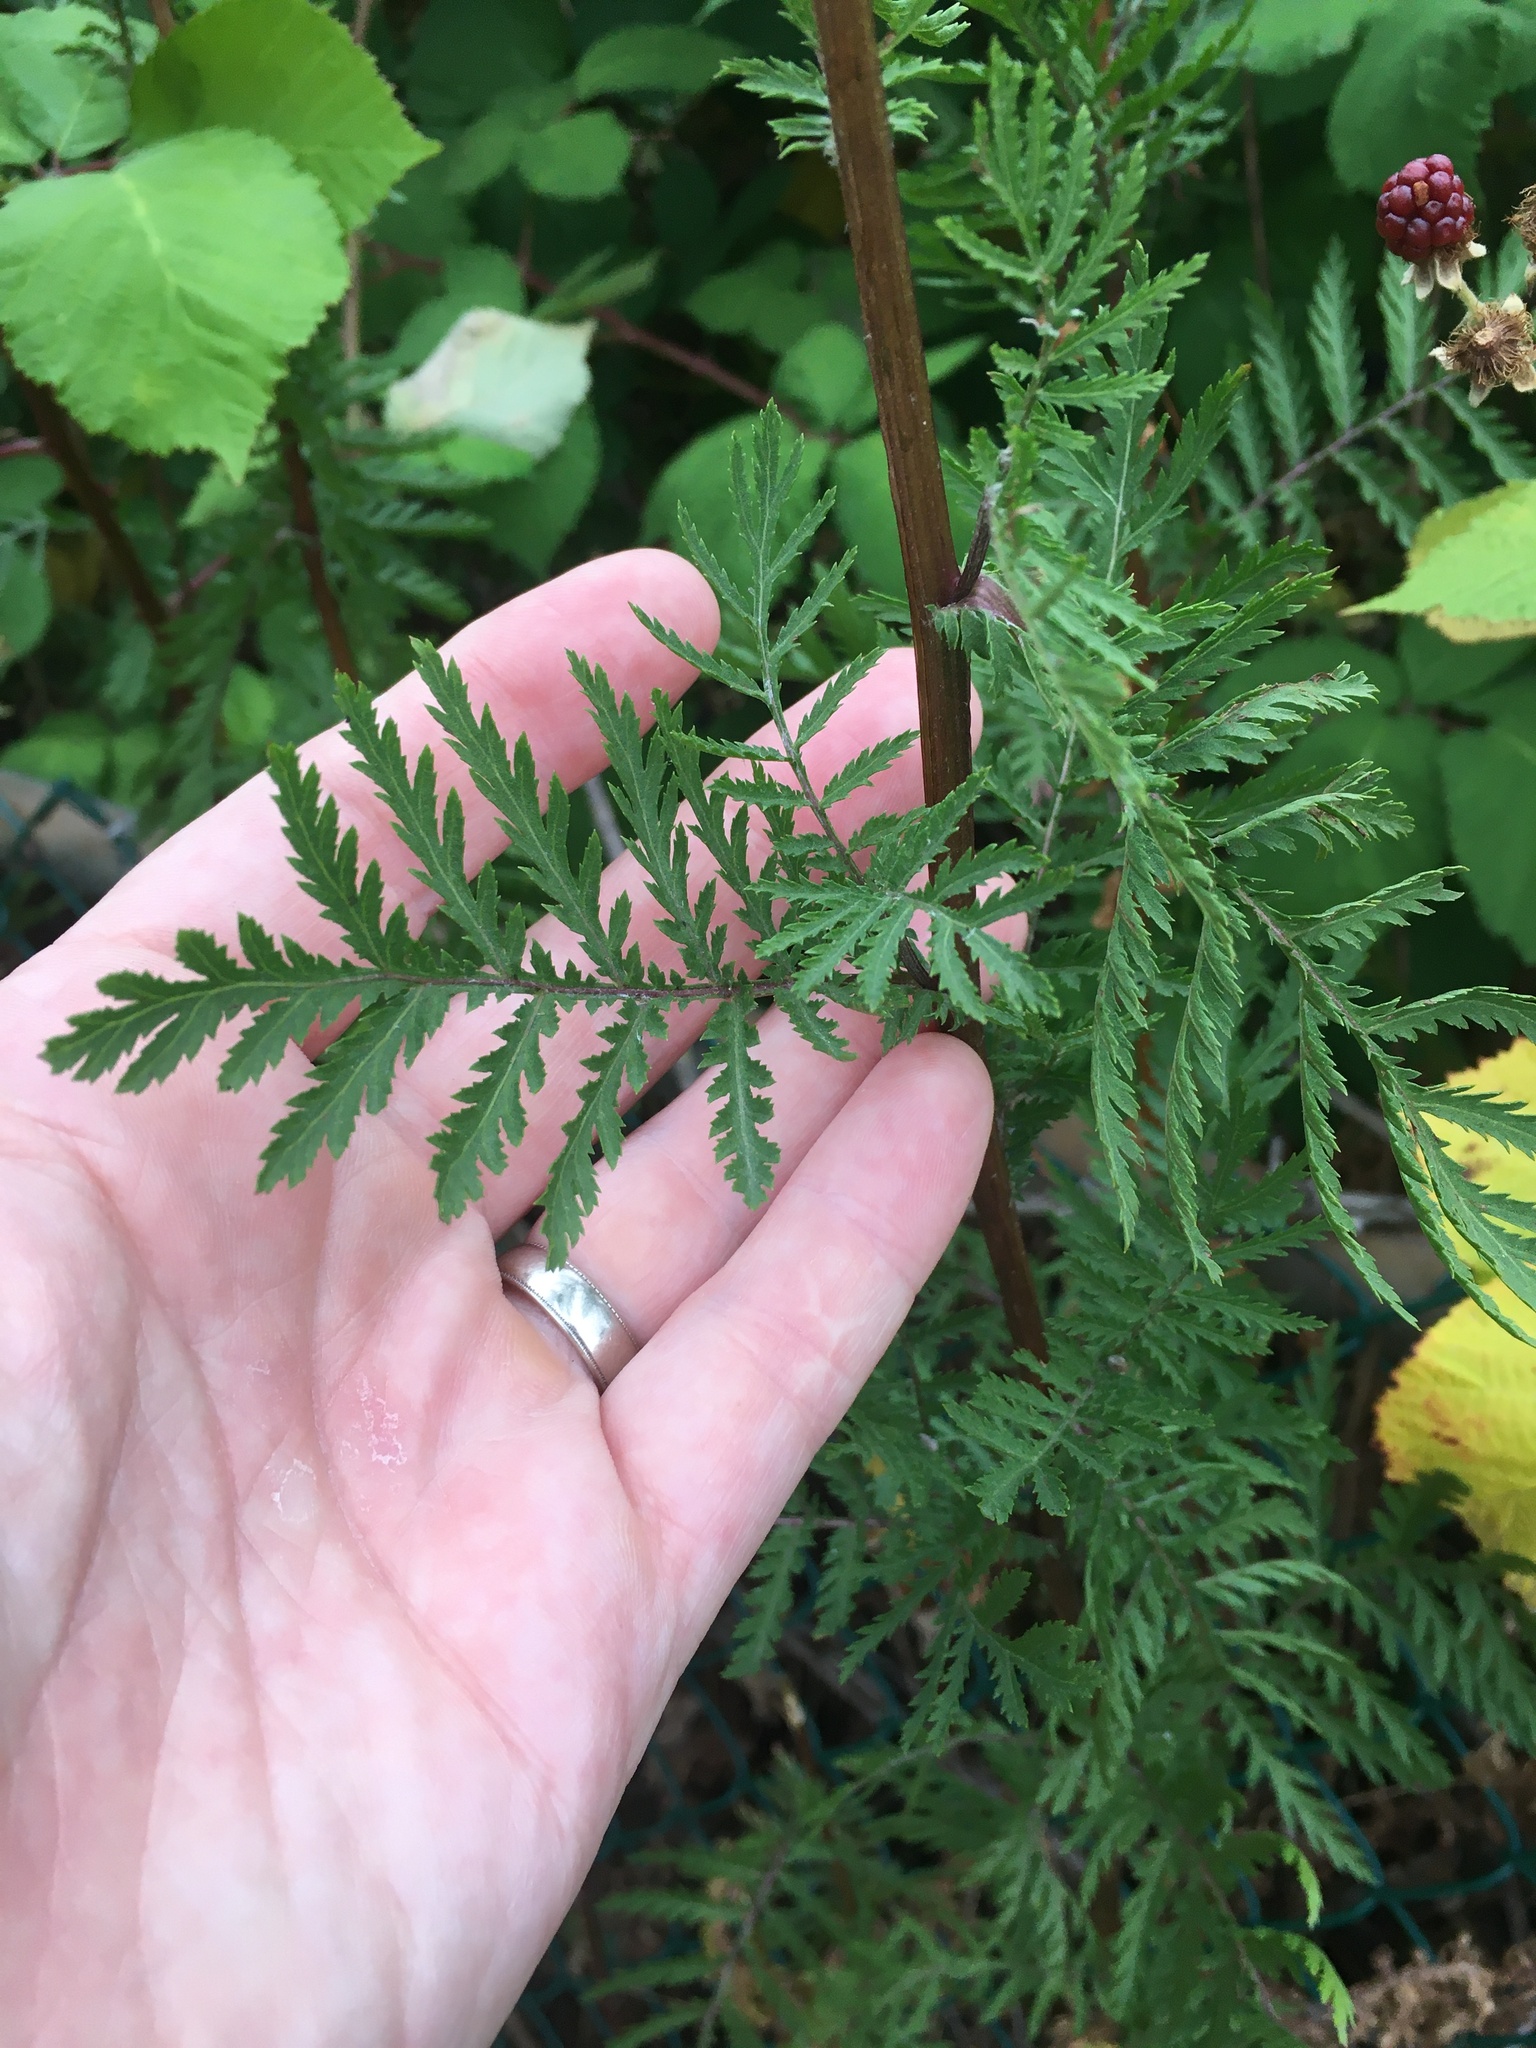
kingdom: Plantae
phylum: Tracheophyta
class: Magnoliopsida
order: Asterales
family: Asteraceae
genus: Tanacetum
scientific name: Tanacetum vulgare
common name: Common tansy
